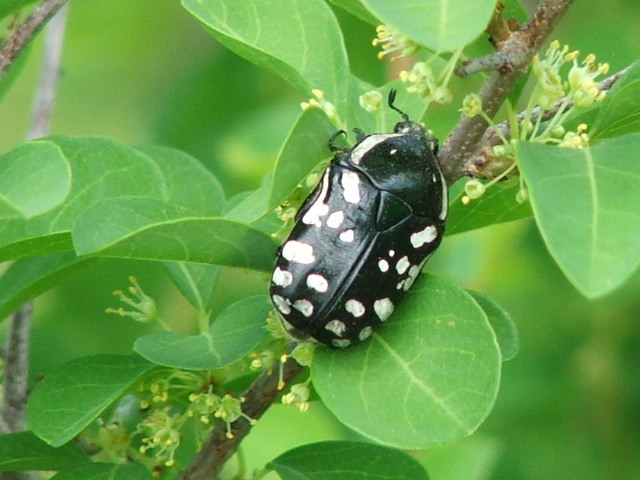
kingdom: Animalia
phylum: Arthropoda
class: Insecta
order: Coleoptera
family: Scarabaeidae
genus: Rhabdotis
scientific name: Rhabdotis albinigra
